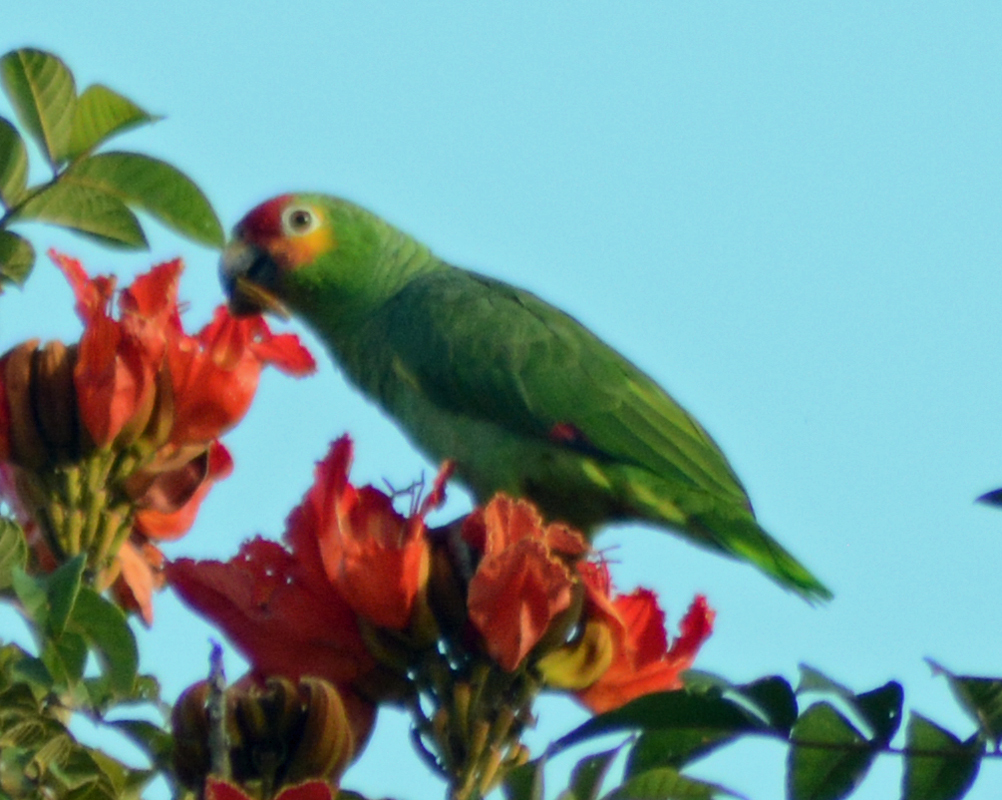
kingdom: Animalia
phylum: Chordata
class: Aves
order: Psittaciformes
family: Psittacidae
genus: Amazona
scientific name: Amazona autumnalis
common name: Red-lored amazon
